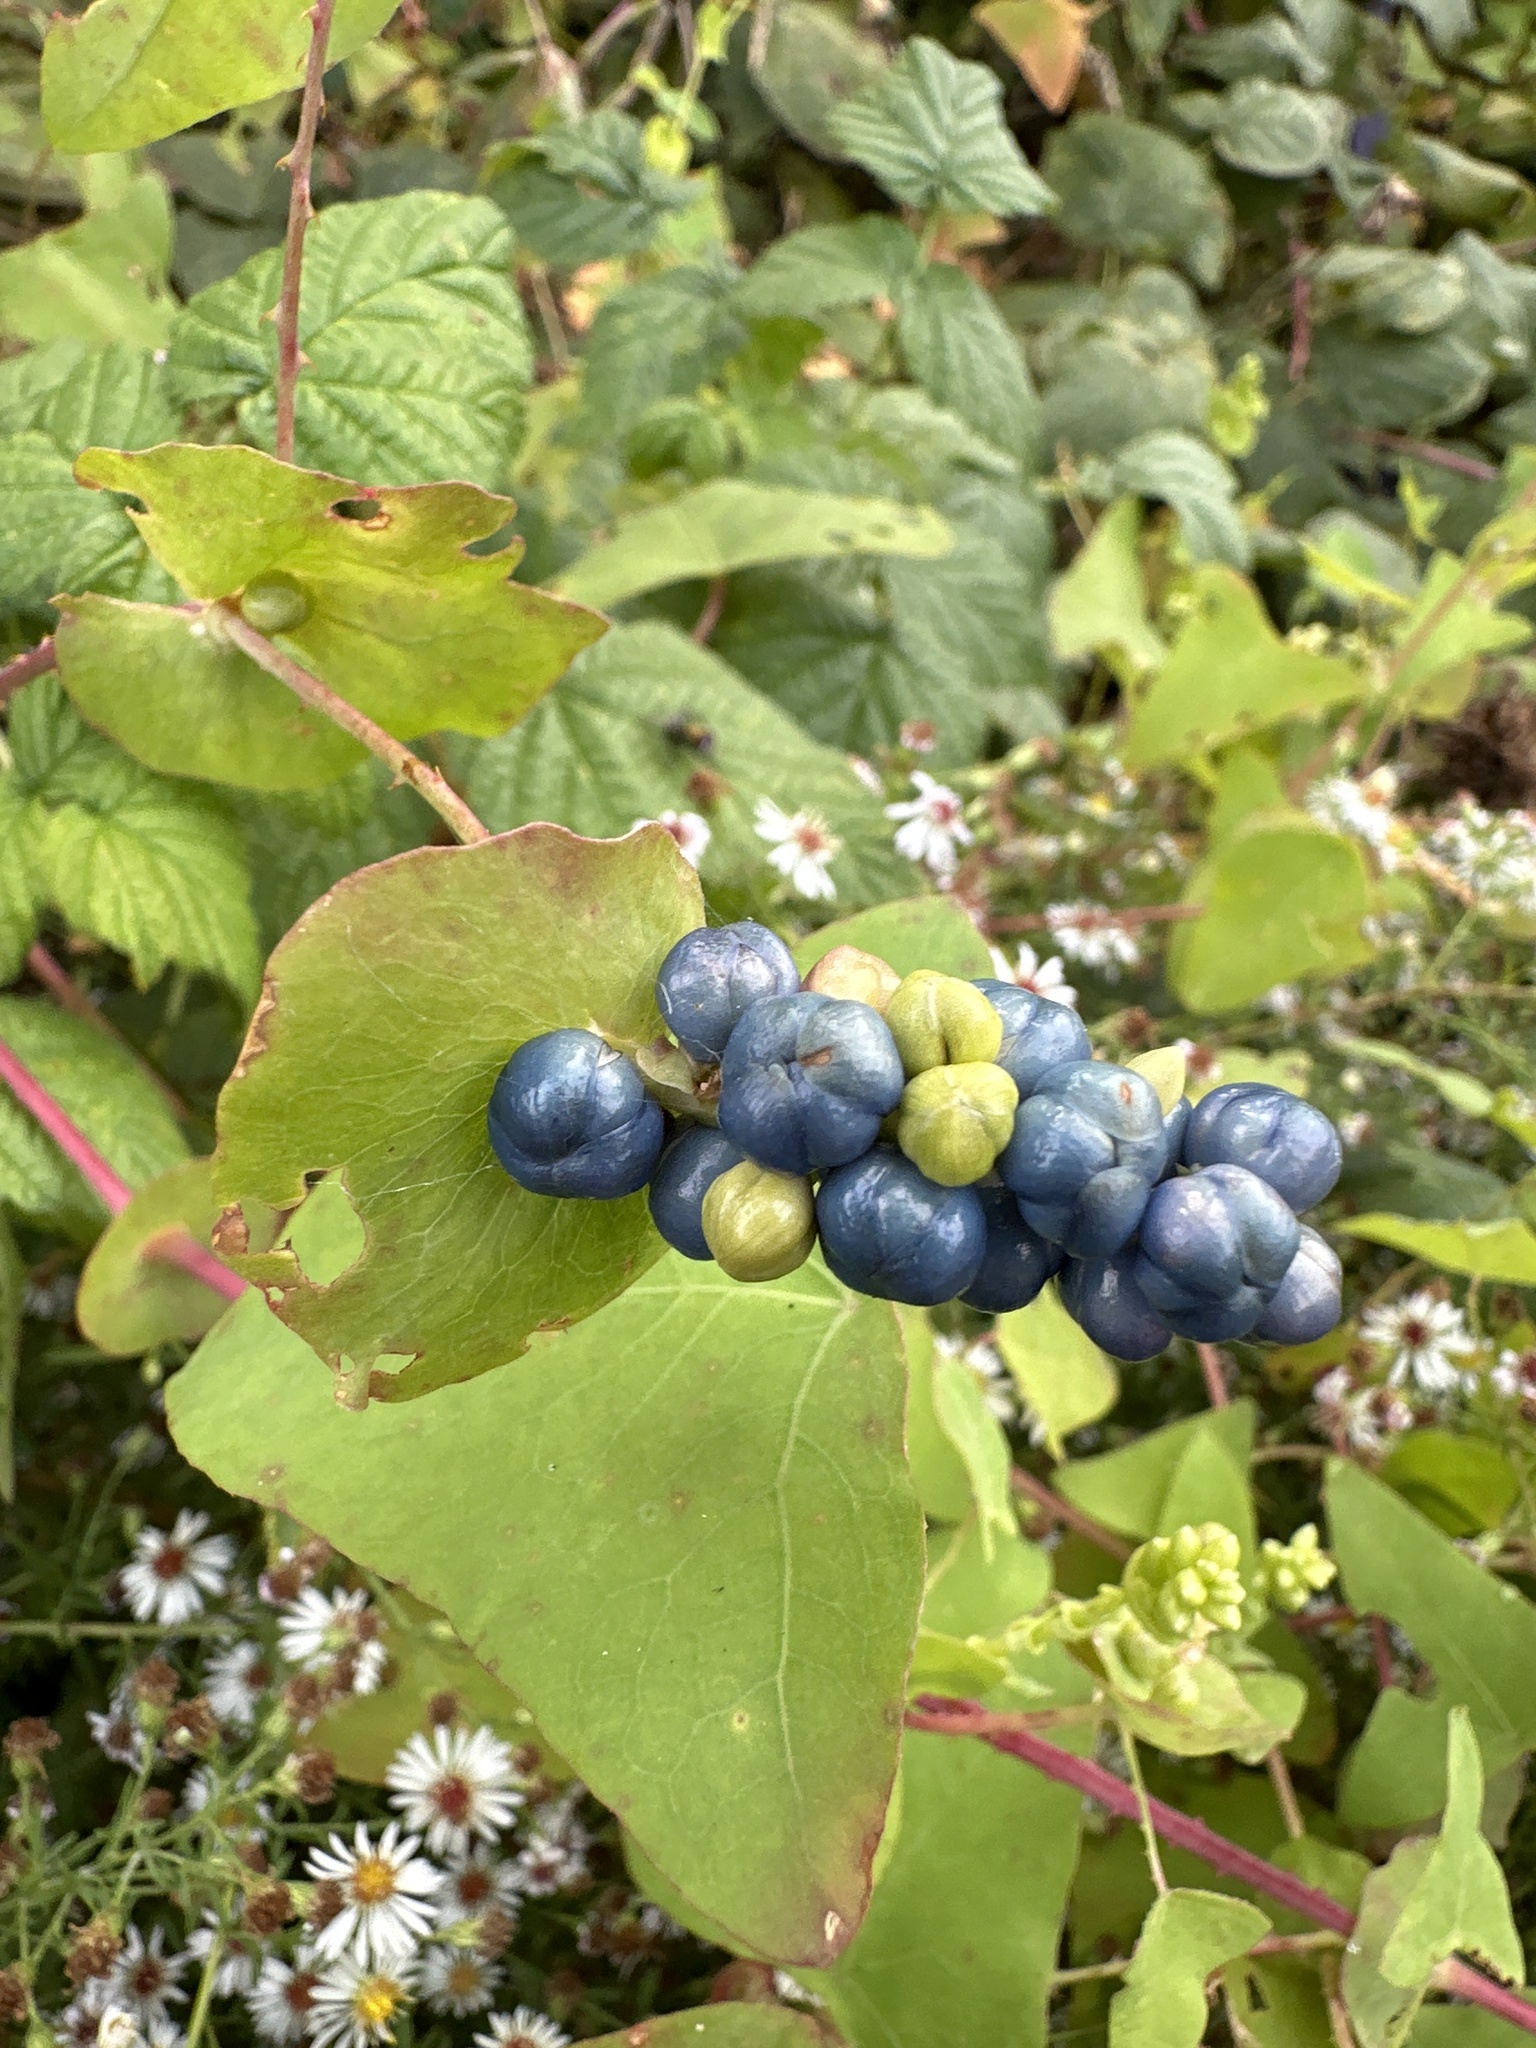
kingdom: Plantae
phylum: Tracheophyta
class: Magnoliopsida
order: Caryophyllales
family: Polygonaceae
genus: Persicaria
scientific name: Persicaria perfoliata
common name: Asiatic tearthumb
